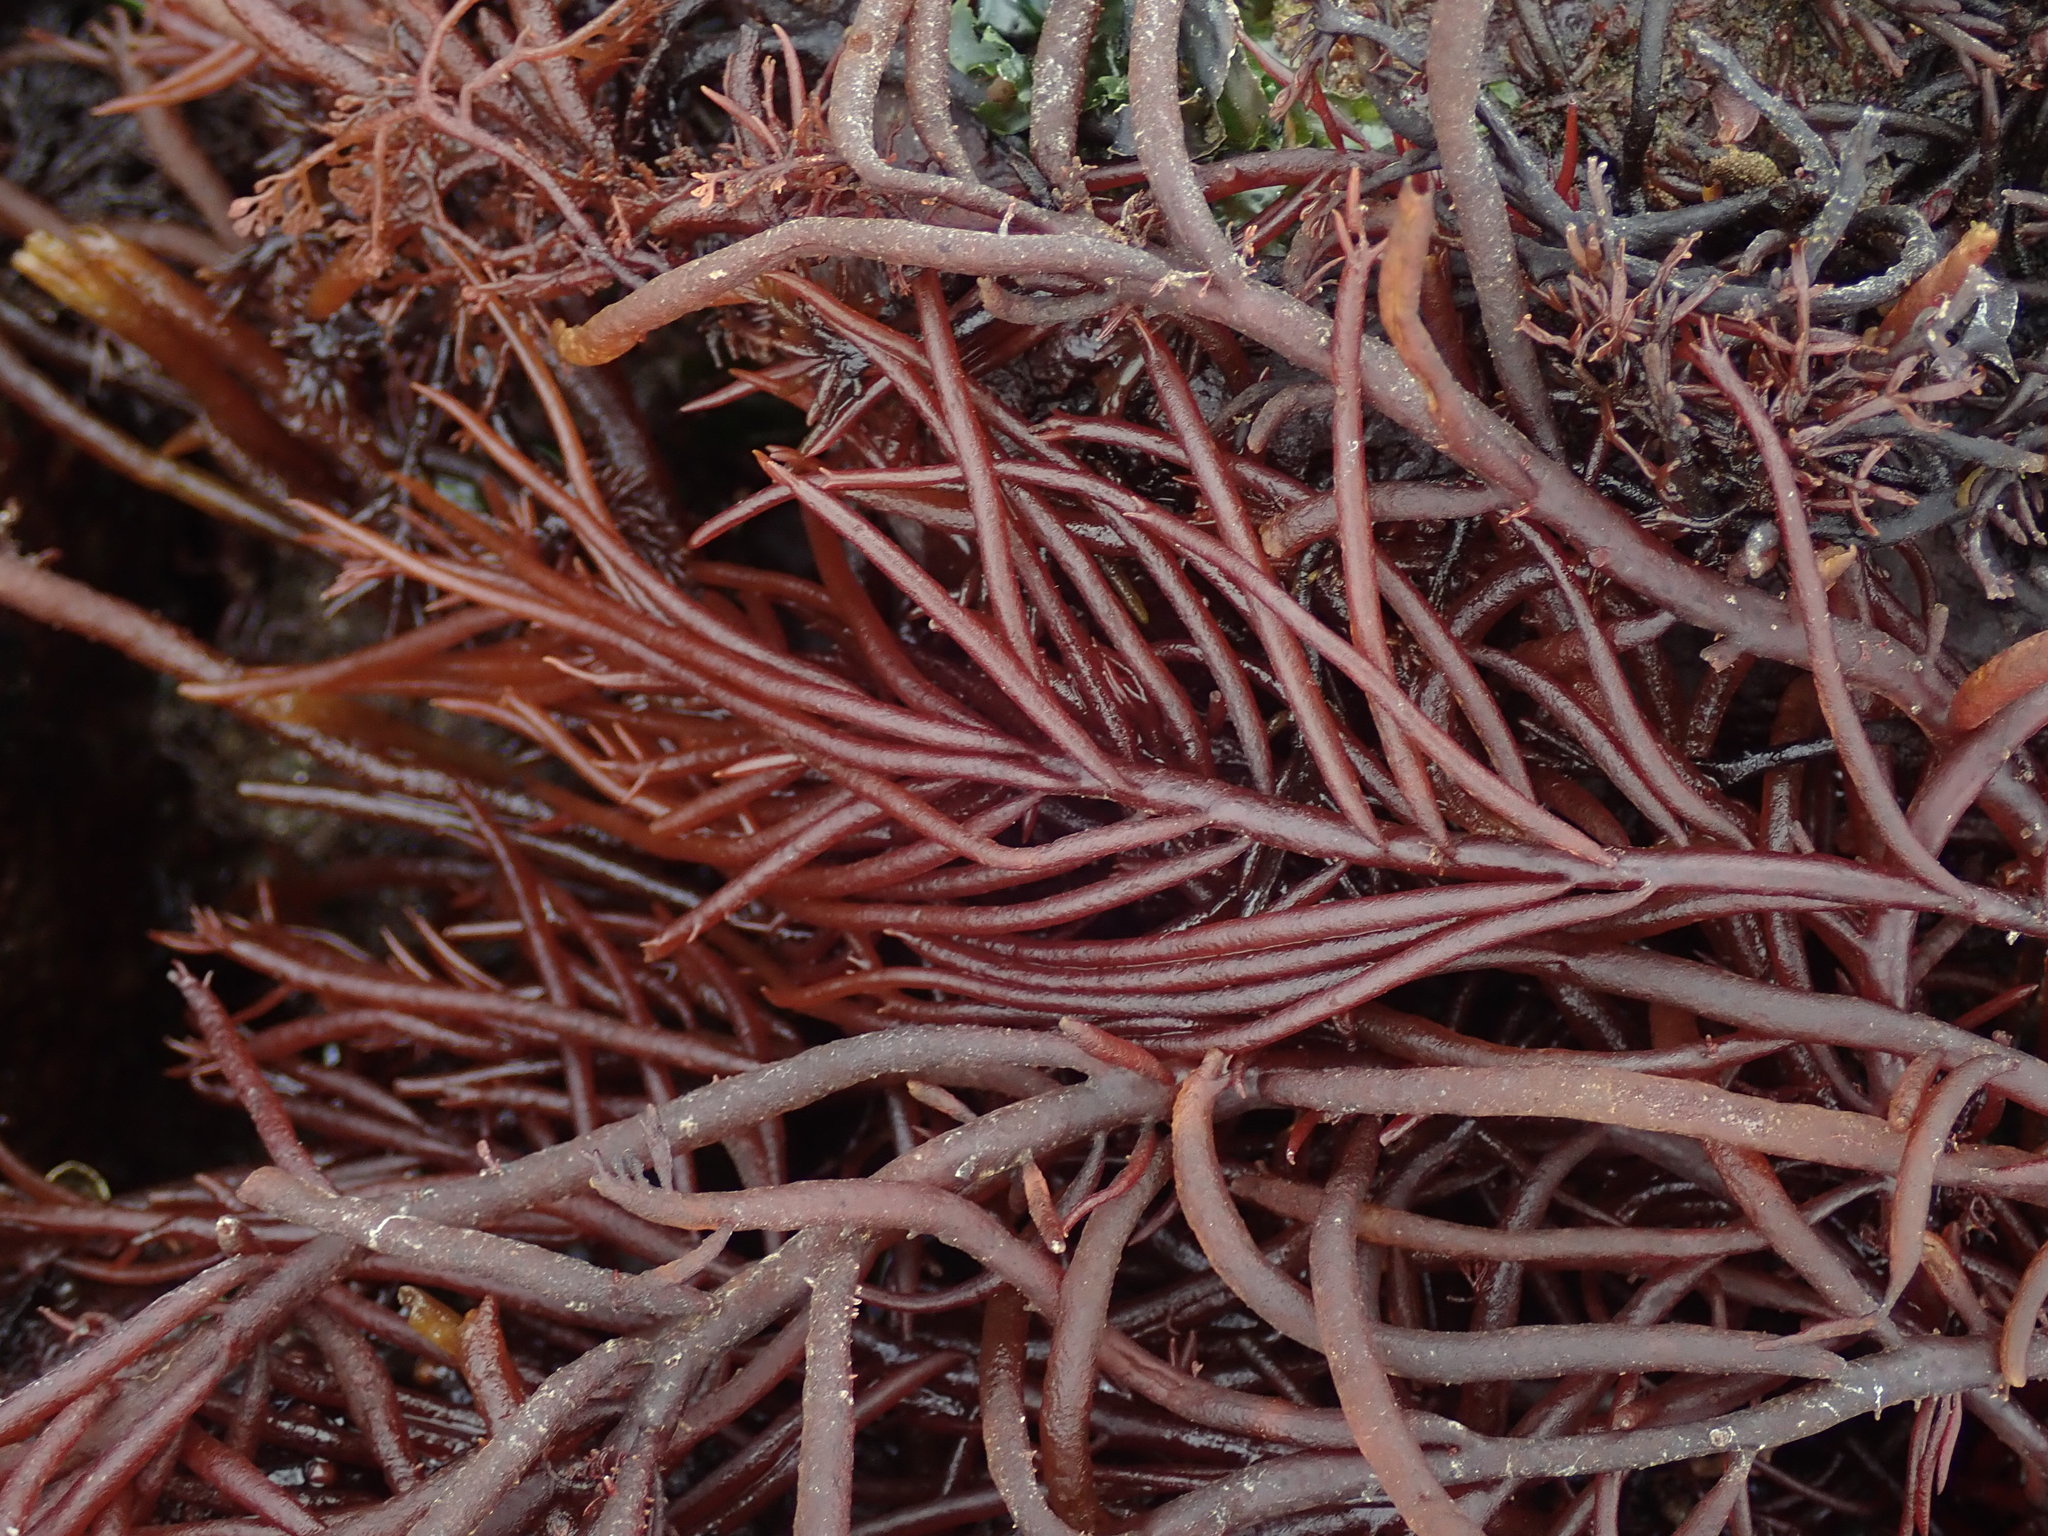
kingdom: Plantae
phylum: Rhodophyta
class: Florideophyceae
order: Gigartinales
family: Solieriaceae
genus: Sarcodiotheca
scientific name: Sarcodiotheca gaudichaudii
